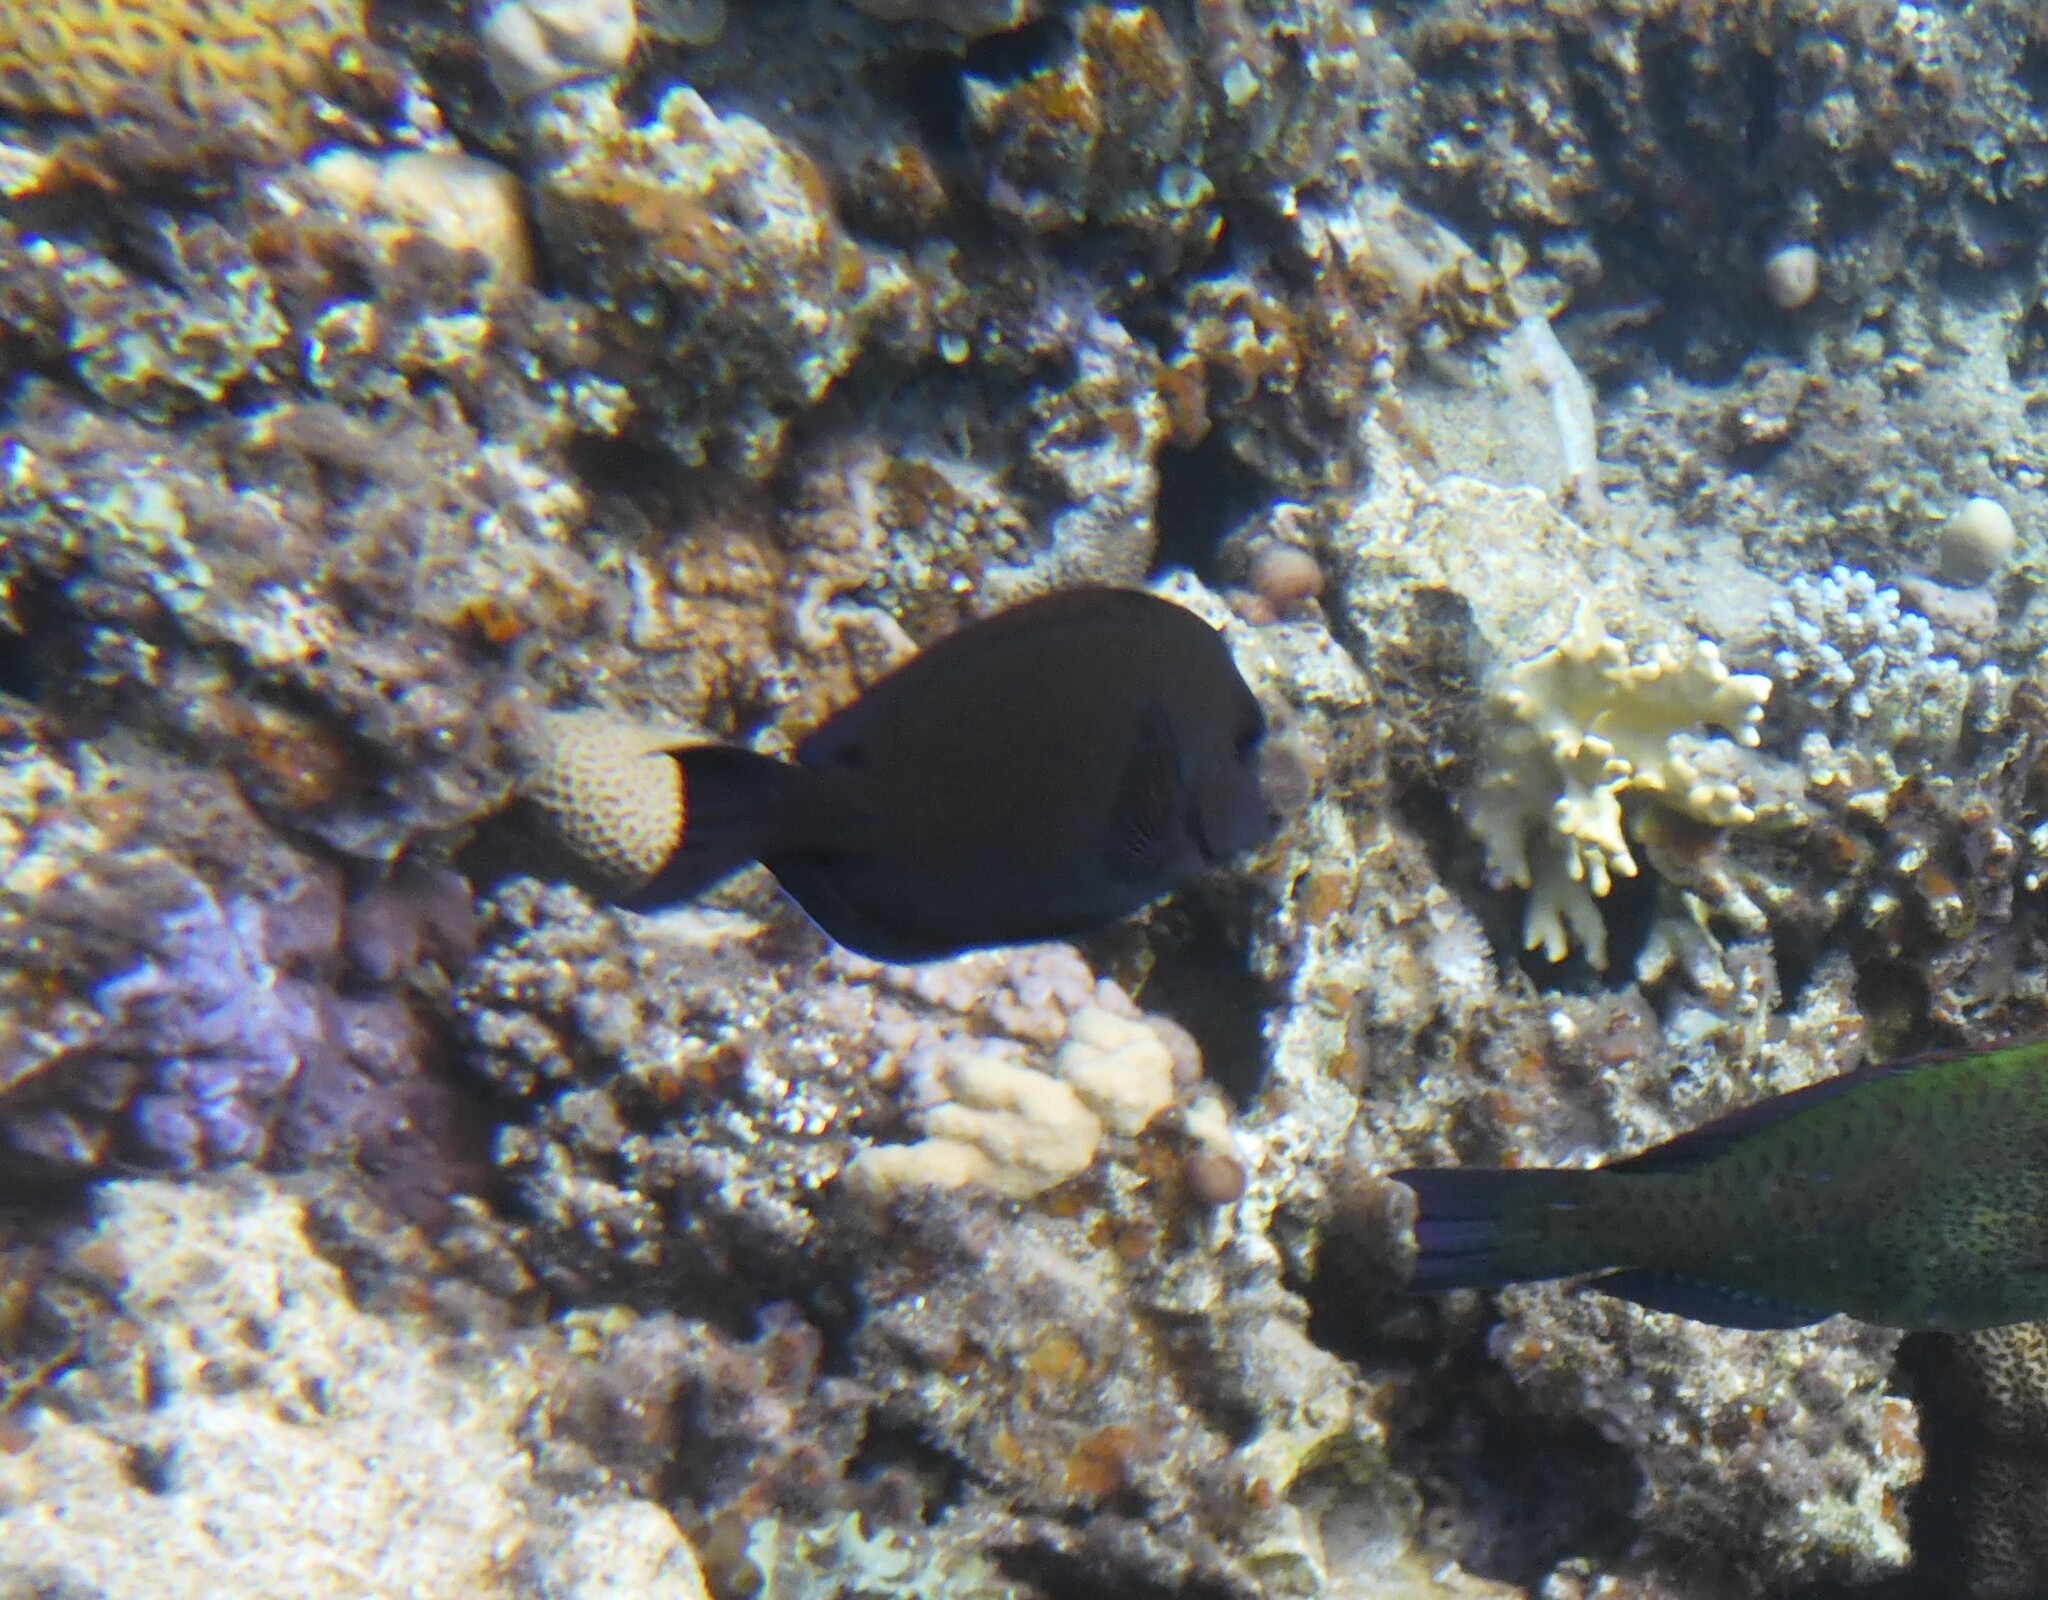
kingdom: Animalia
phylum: Chordata
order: Perciformes
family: Acanthuridae
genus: Acanthurus
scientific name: Acanthurus nigrofuscus
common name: Blackspot surgeonfish
